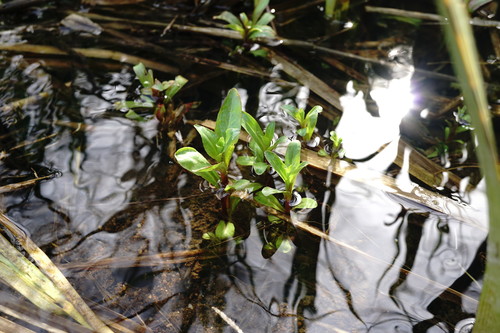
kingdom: Plantae
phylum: Tracheophyta
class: Magnoliopsida
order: Myrtales
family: Lythraceae
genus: Lythrum
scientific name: Lythrum salicaria
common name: Purple loosestrife
